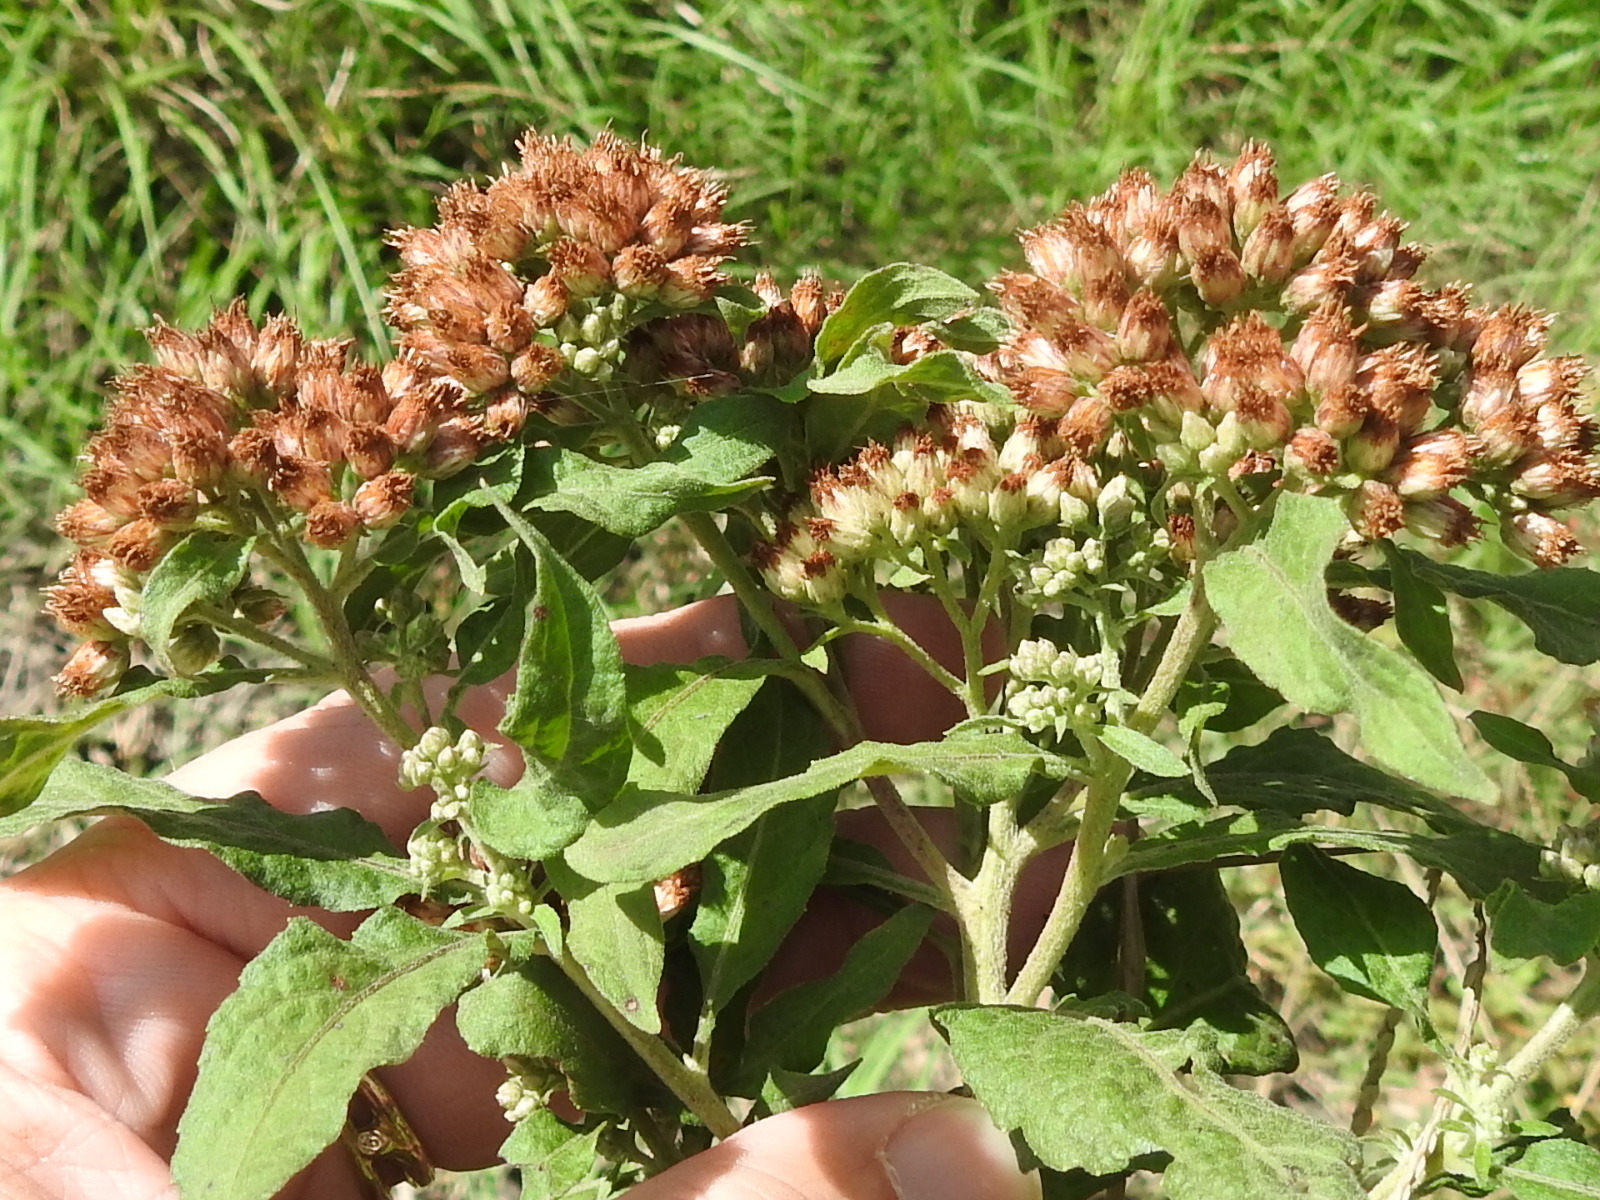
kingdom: Plantae
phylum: Tracheophyta
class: Magnoliopsida
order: Asterales
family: Asteraceae
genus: Pluchea
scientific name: Pluchea odorata
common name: Saltmarsh fleabane
